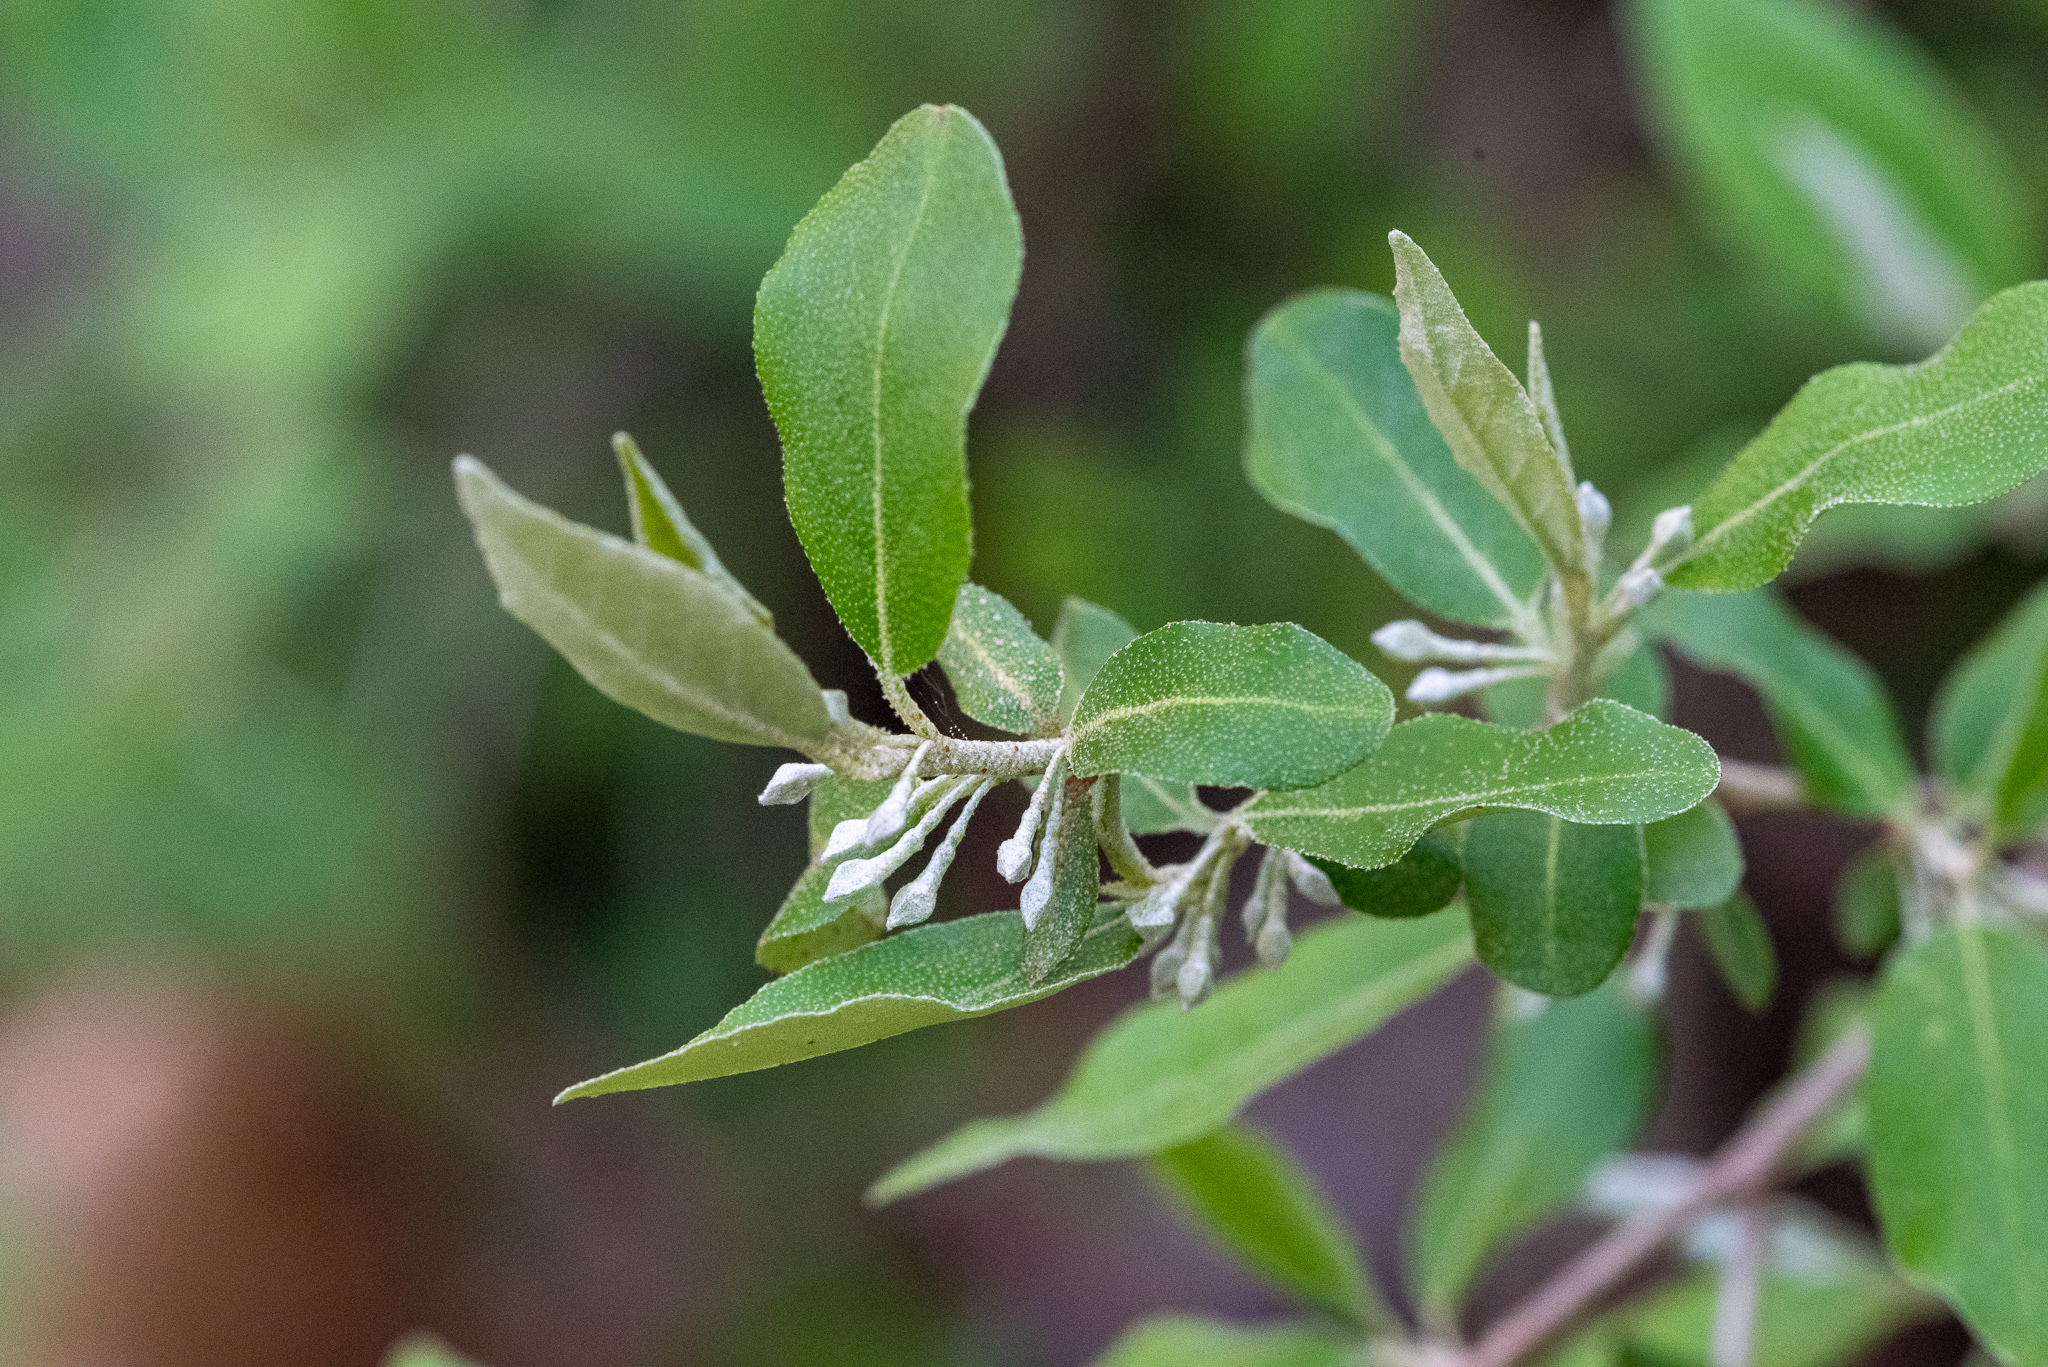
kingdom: Plantae
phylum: Tracheophyta
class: Magnoliopsida
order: Rosales
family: Elaeagnaceae
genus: Elaeagnus
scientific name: Elaeagnus umbellata
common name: Autumn olive
